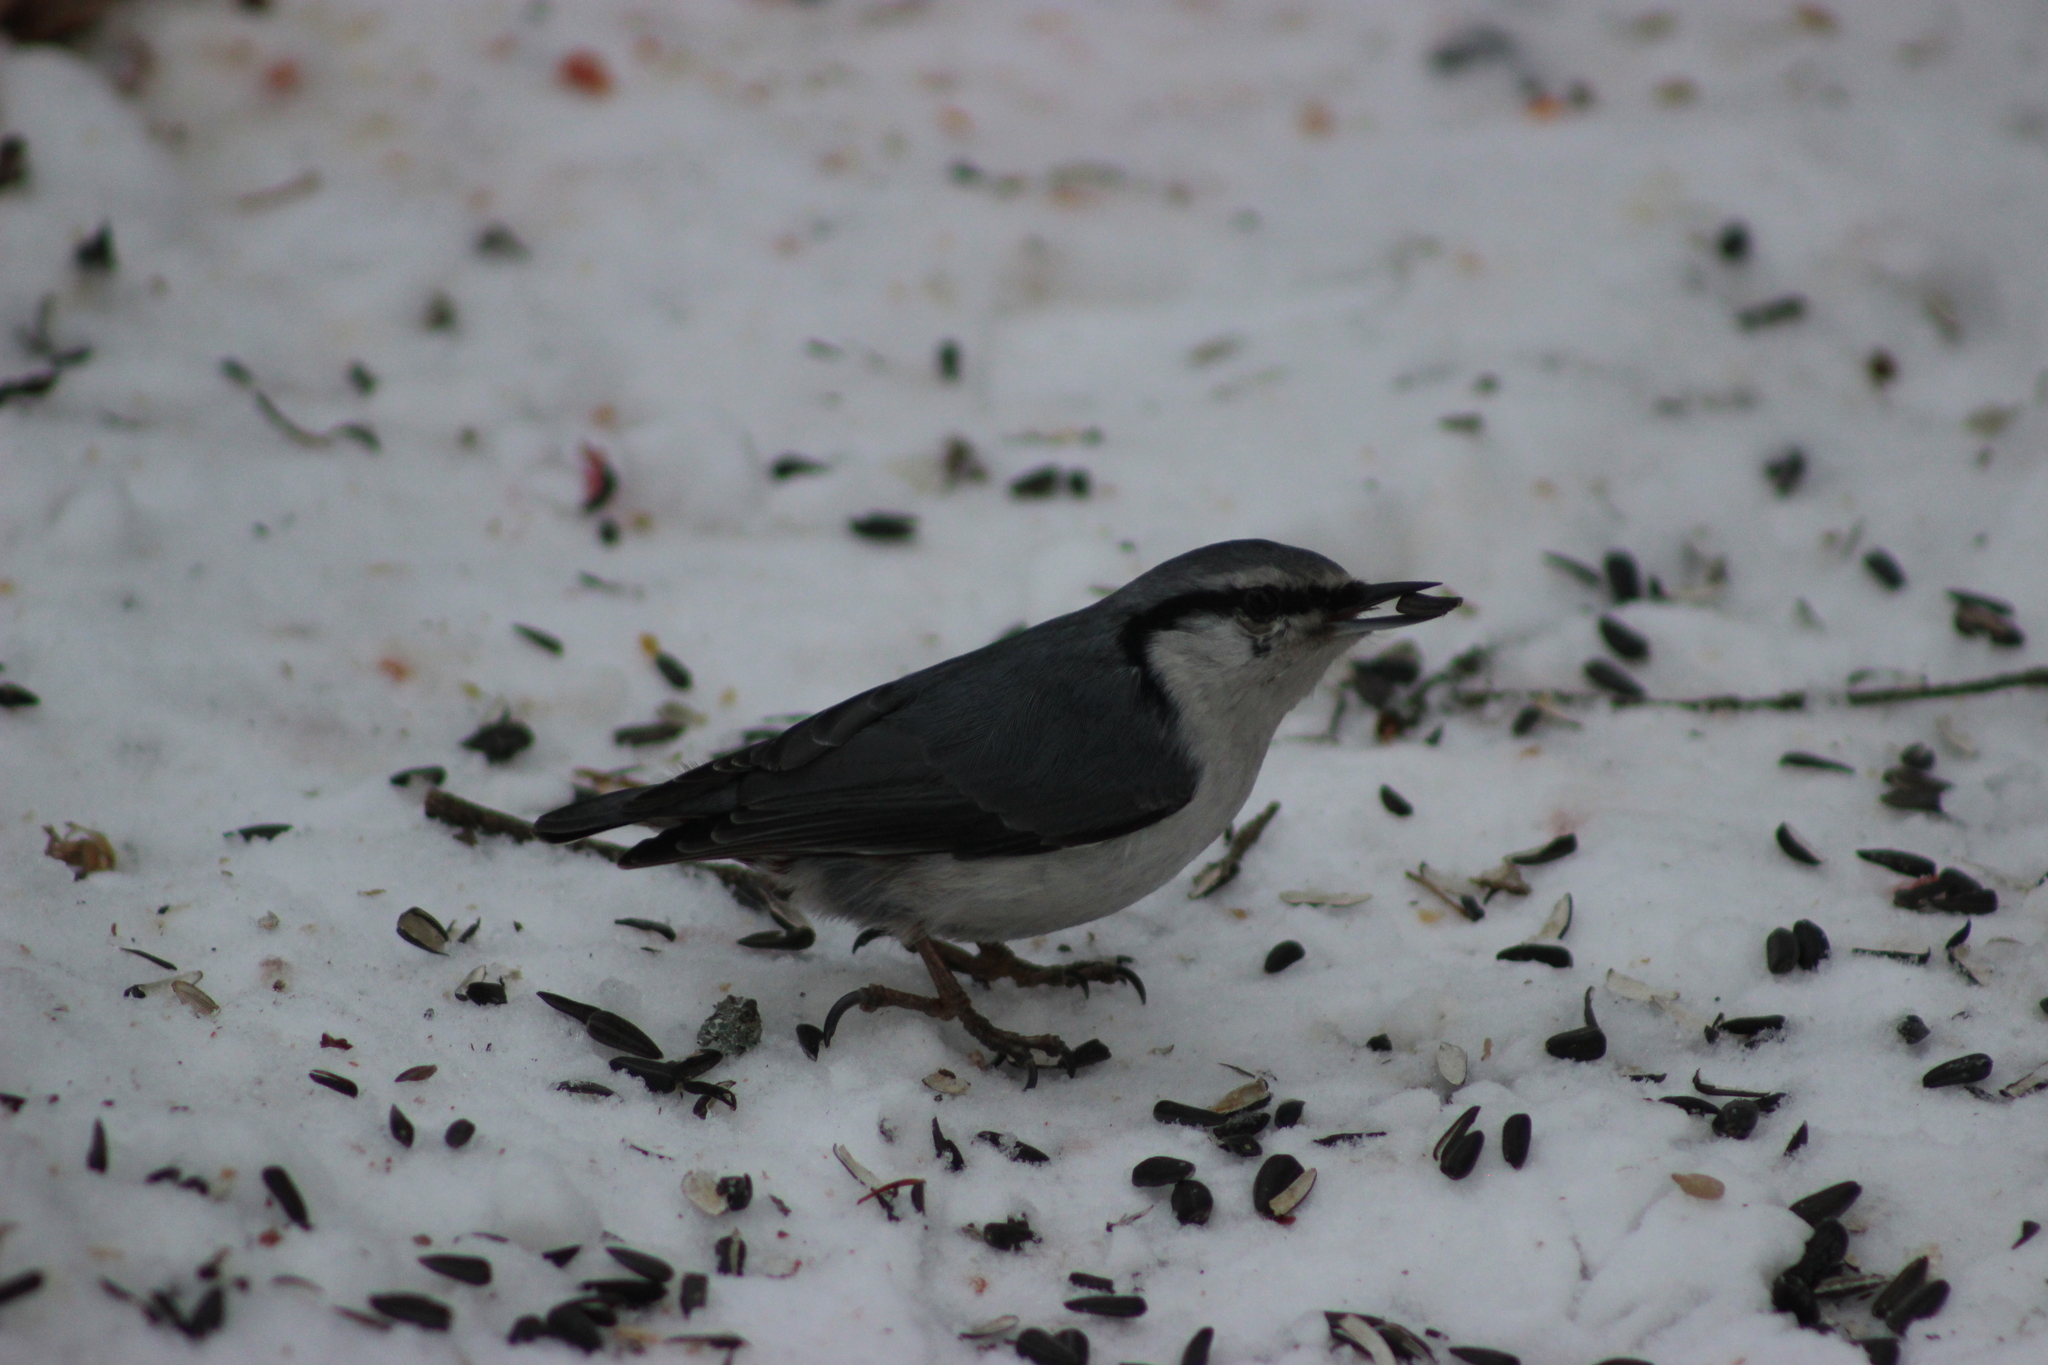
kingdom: Animalia
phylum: Chordata
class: Aves
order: Passeriformes
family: Sittidae
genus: Sitta
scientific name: Sitta europaea
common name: Eurasian nuthatch
